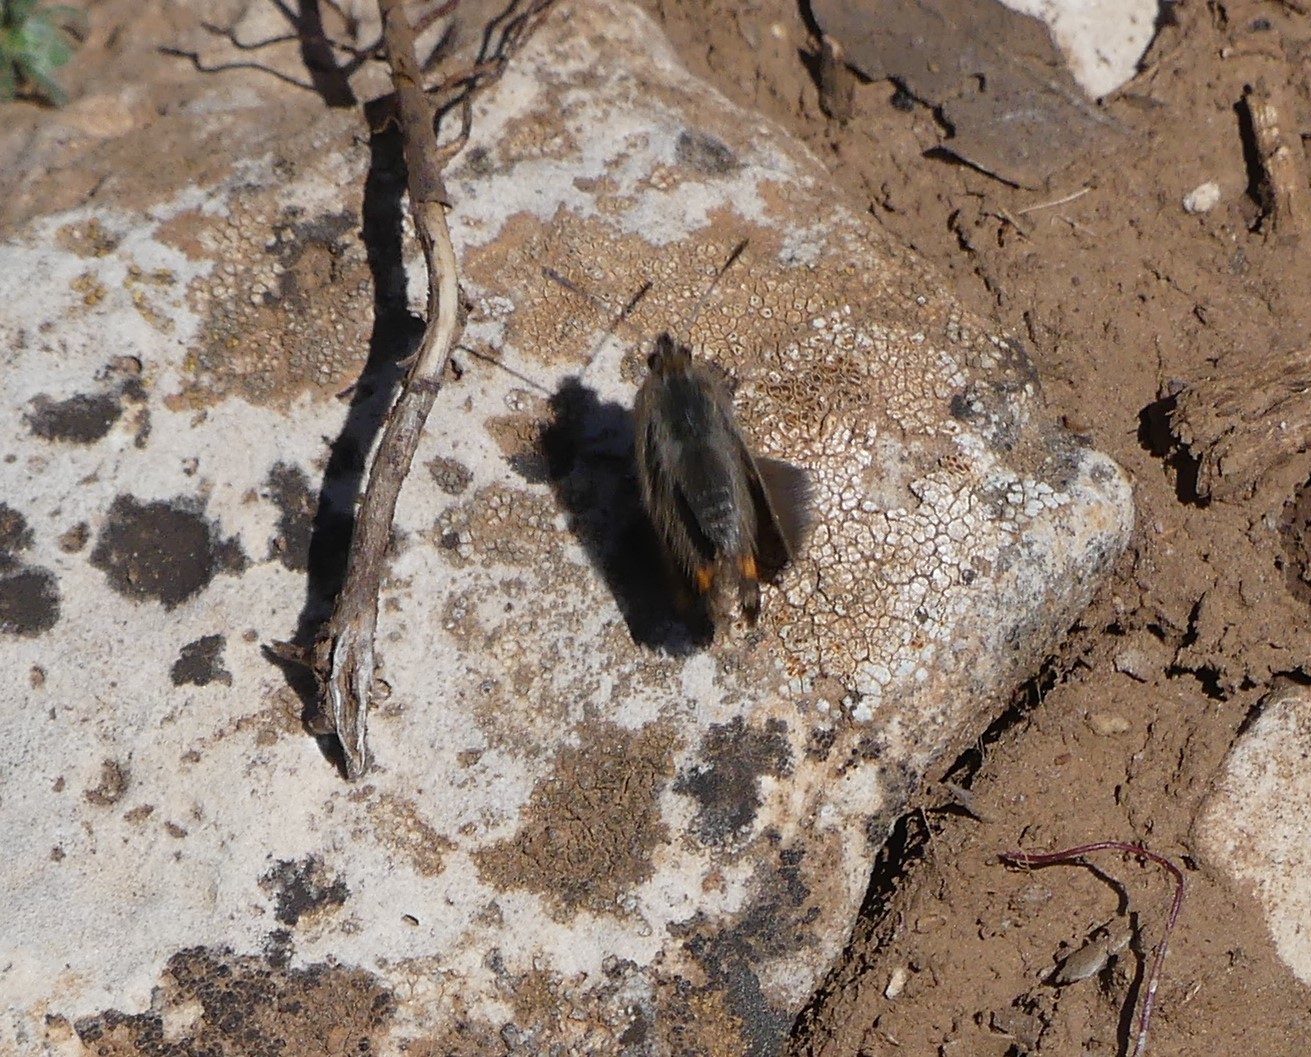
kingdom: Animalia
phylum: Arthropoda
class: Insecta
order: Lepidoptera
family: Lycaenidae
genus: Tomares
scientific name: Tomares mauritanicus
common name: Moroccan hairstreak
